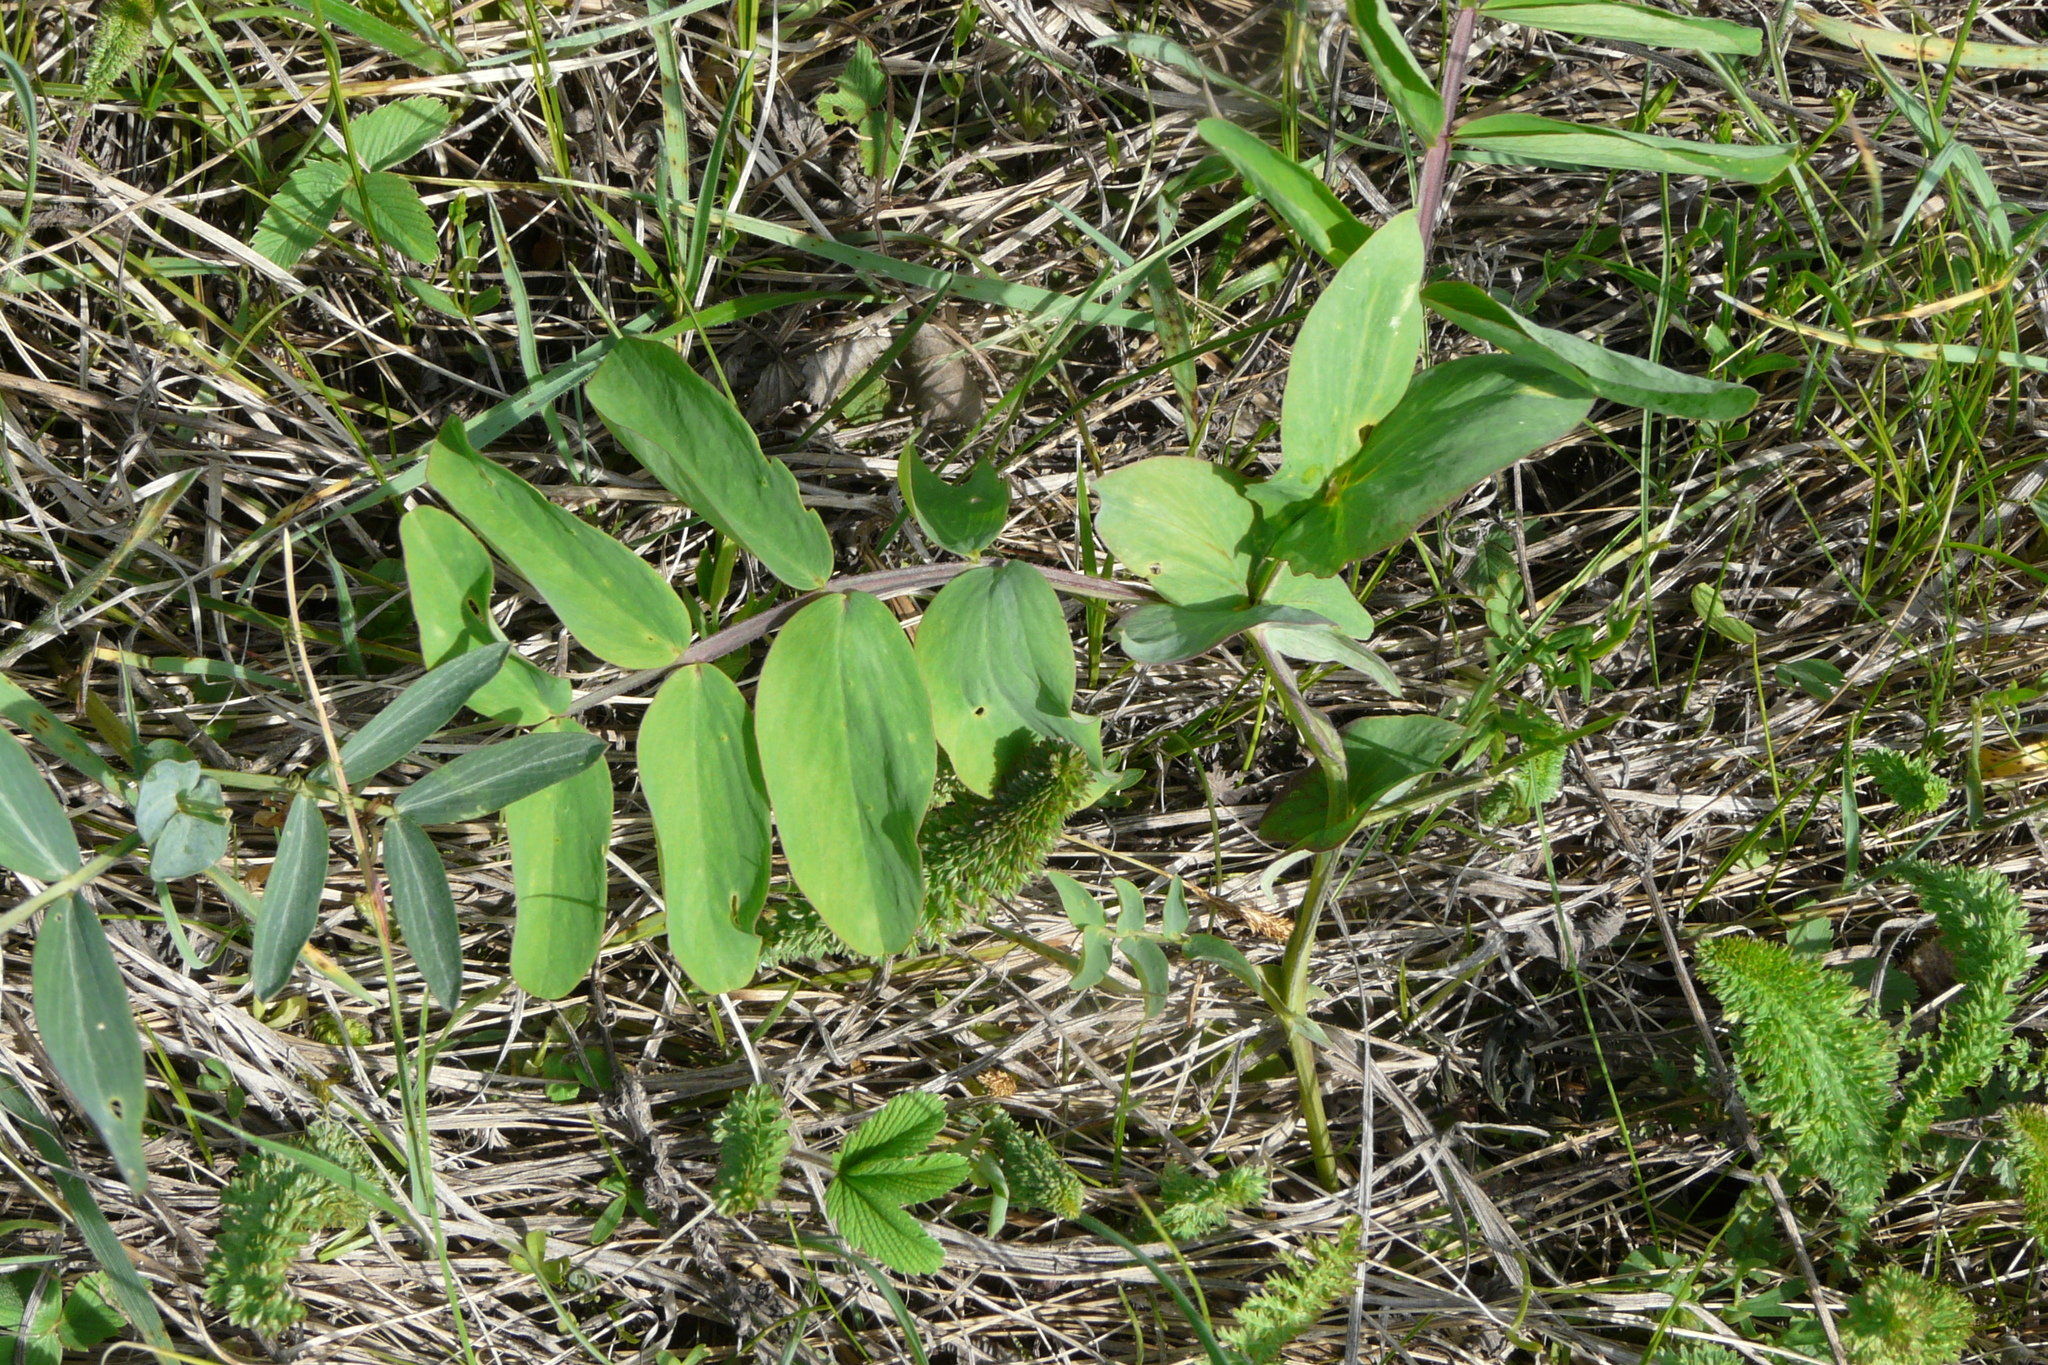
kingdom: Plantae
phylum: Tracheophyta
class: Magnoliopsida
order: Fabales
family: Fabaceae
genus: Lathyrus
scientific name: Lathyrus pisiformis
